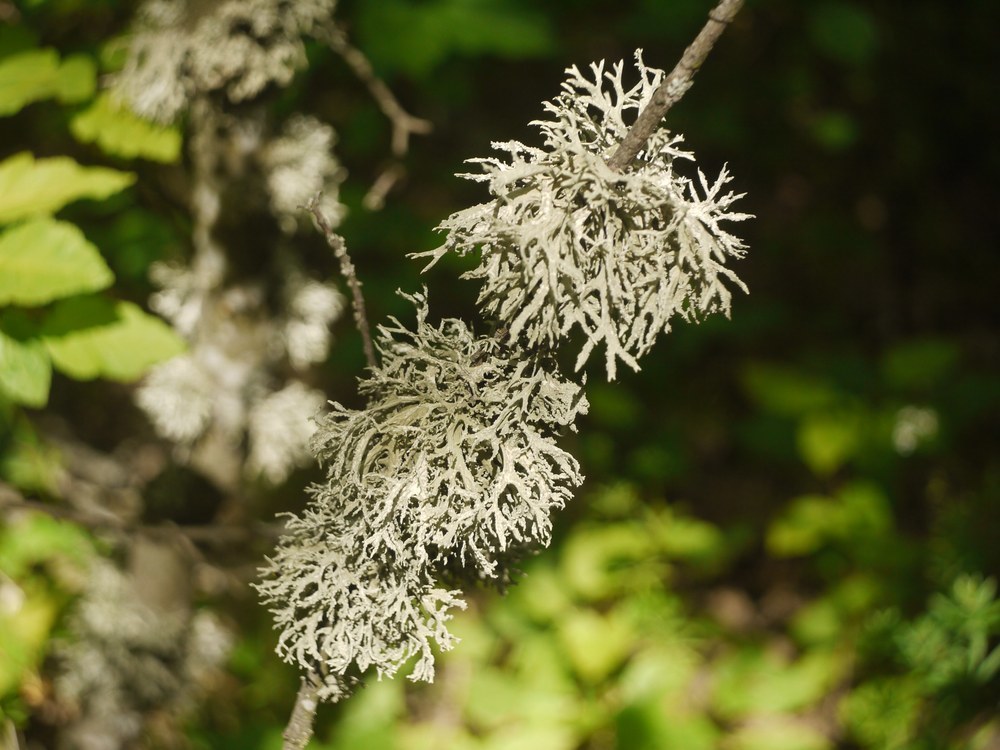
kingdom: Fungi
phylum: Ascomycota
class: Lecanoromycetes
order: Lecanorales
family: Parmeliaceae
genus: Evernia
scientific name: Evernia prunastri
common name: Oak moss
